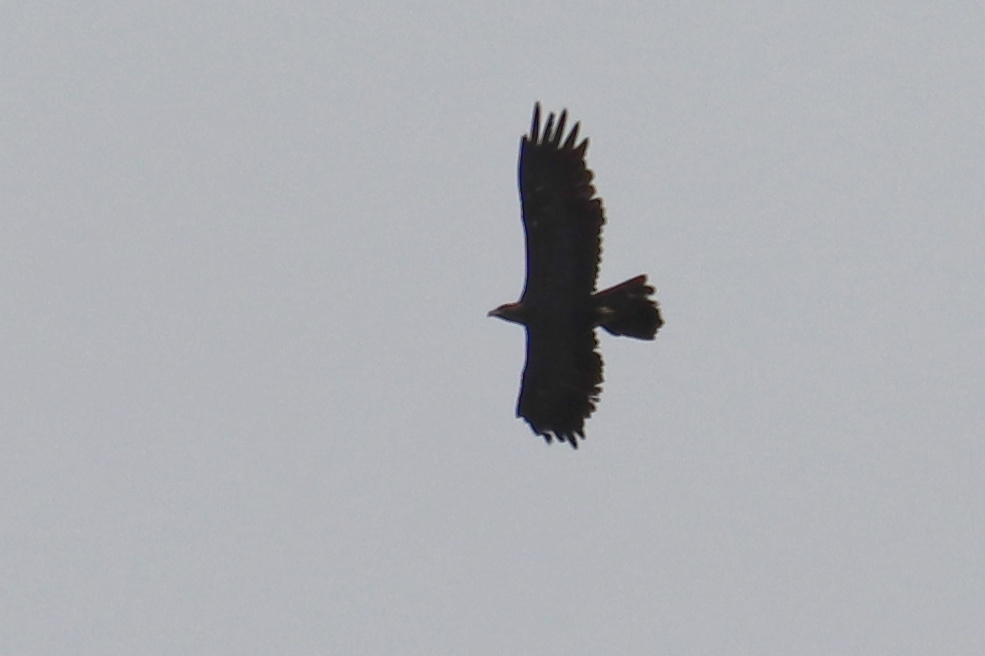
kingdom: Animalia
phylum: Chordata
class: Aves
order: Accipitriformes
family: Accipitridae
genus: Aquila
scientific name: Aquila chrysaetos
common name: Golden eagle
